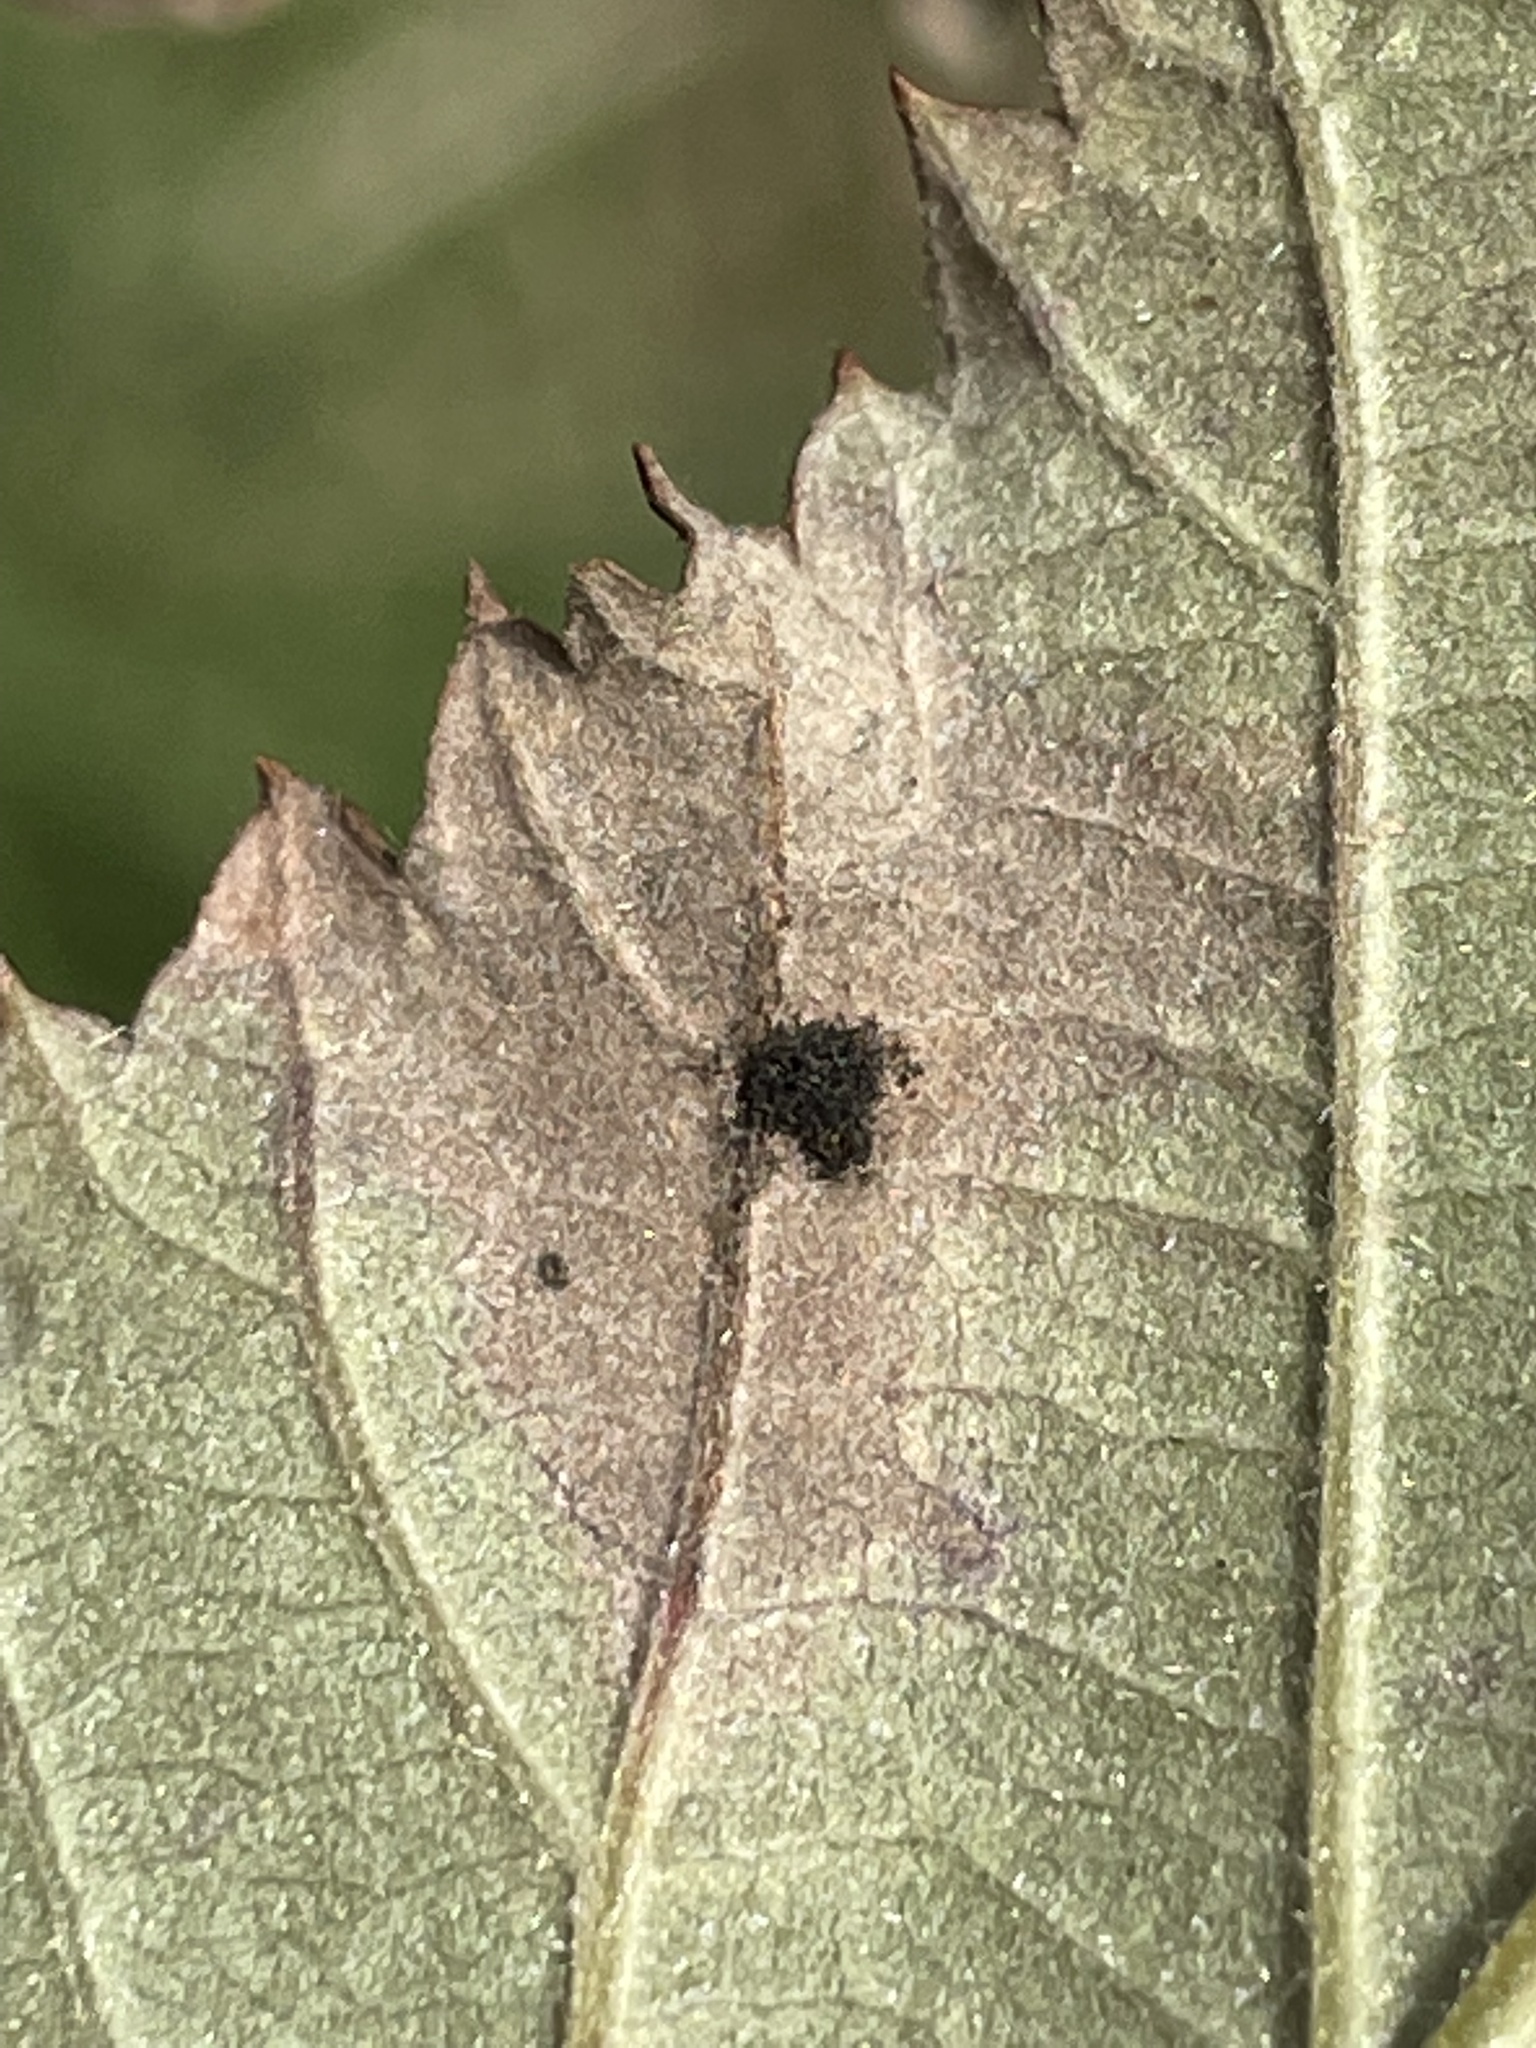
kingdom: Fungi
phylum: Basidiomycota
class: Pucciniomycetes
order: Pucciniales
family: Phragmidiaceae
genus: Phragmidium
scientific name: Phragmidium violaceum
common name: Violet bramble rust
